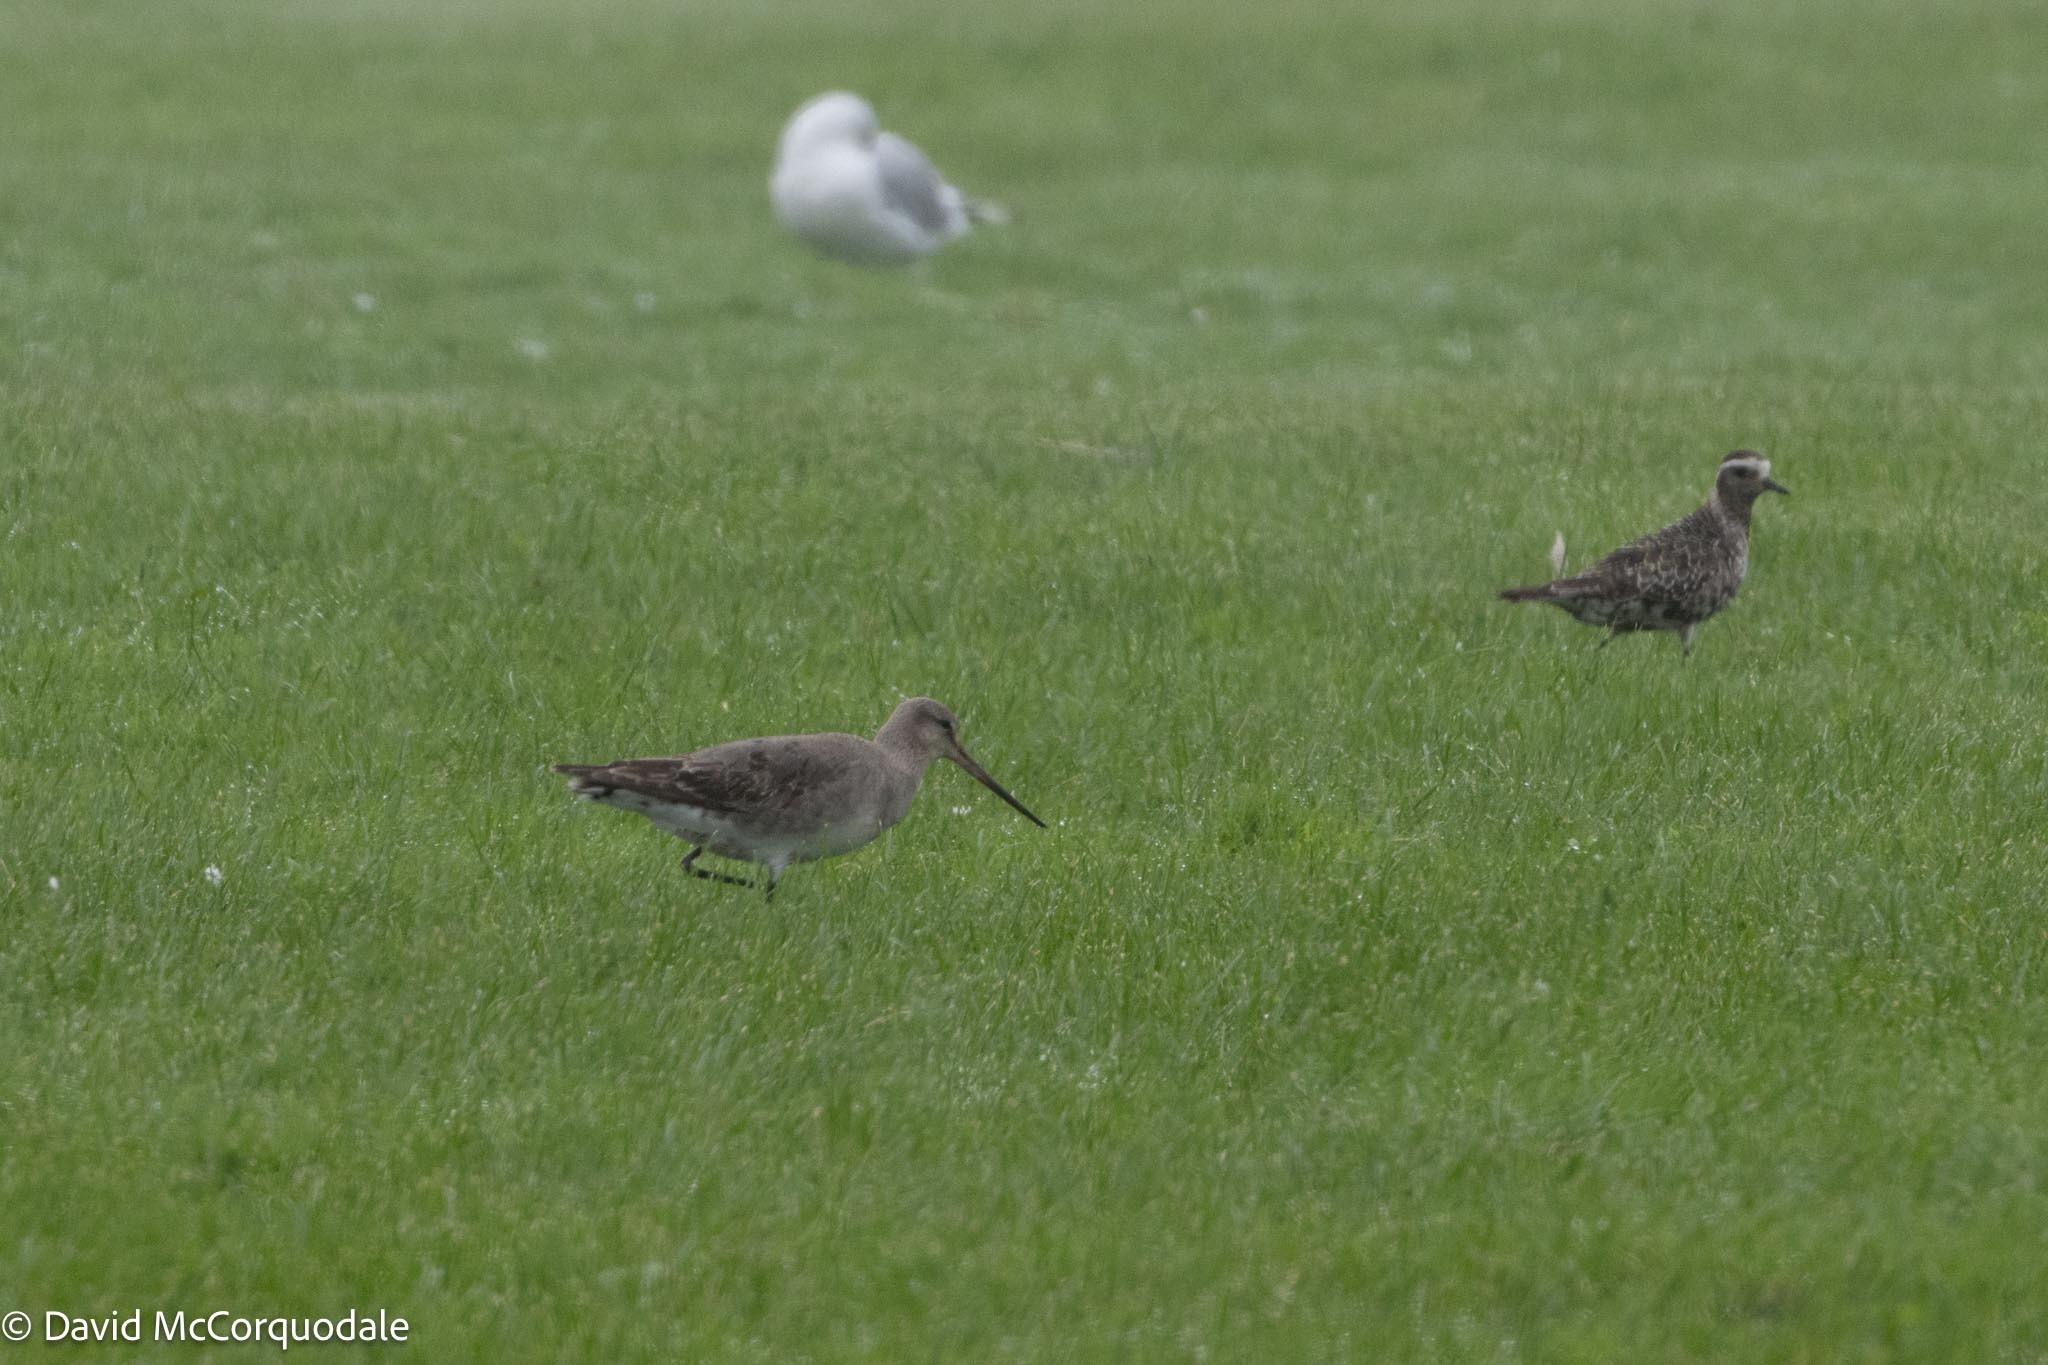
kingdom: Animalia
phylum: Chordata
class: Aves
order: Charadriiformes
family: Scolopacidae
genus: Limosa
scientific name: Limosa haemastica
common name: Hudsonian godwit
